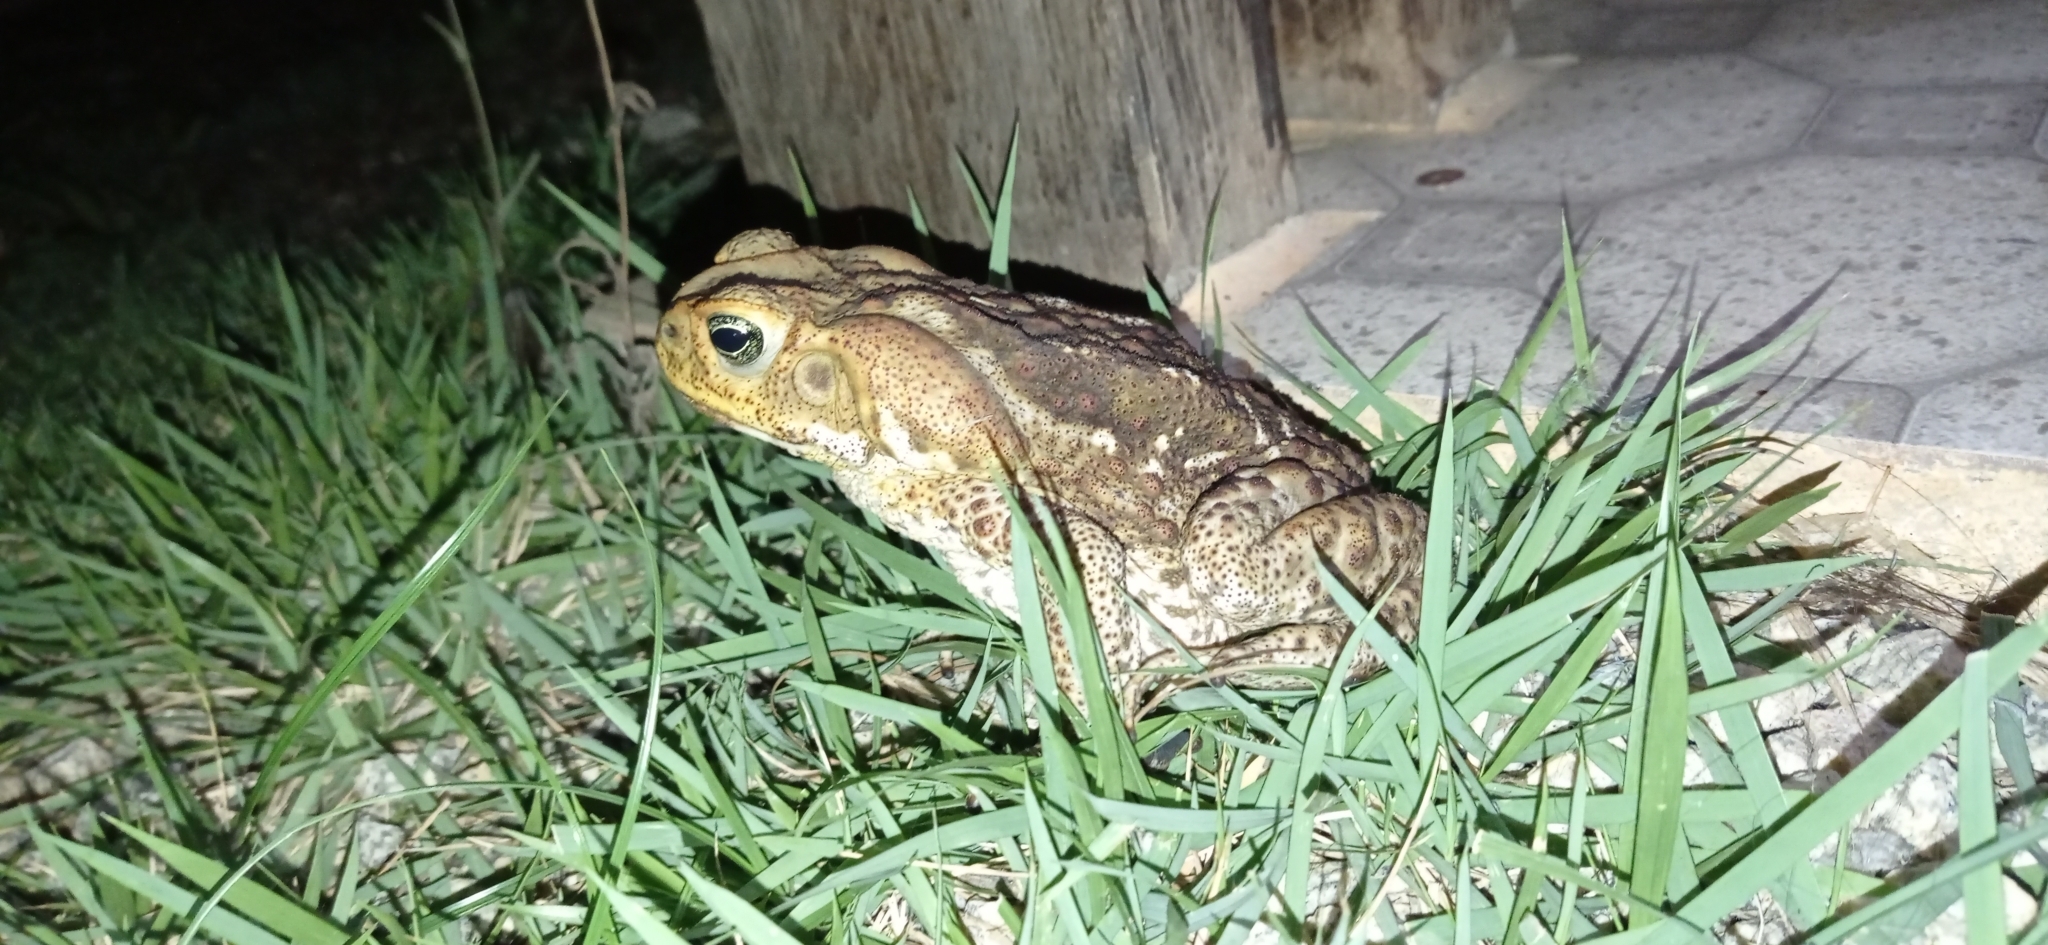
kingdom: Animalia
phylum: Chordata
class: Amphibia
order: Anura
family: Bufonidae
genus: Rhinella
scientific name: Rhinella diptycha
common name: Cope's toad
